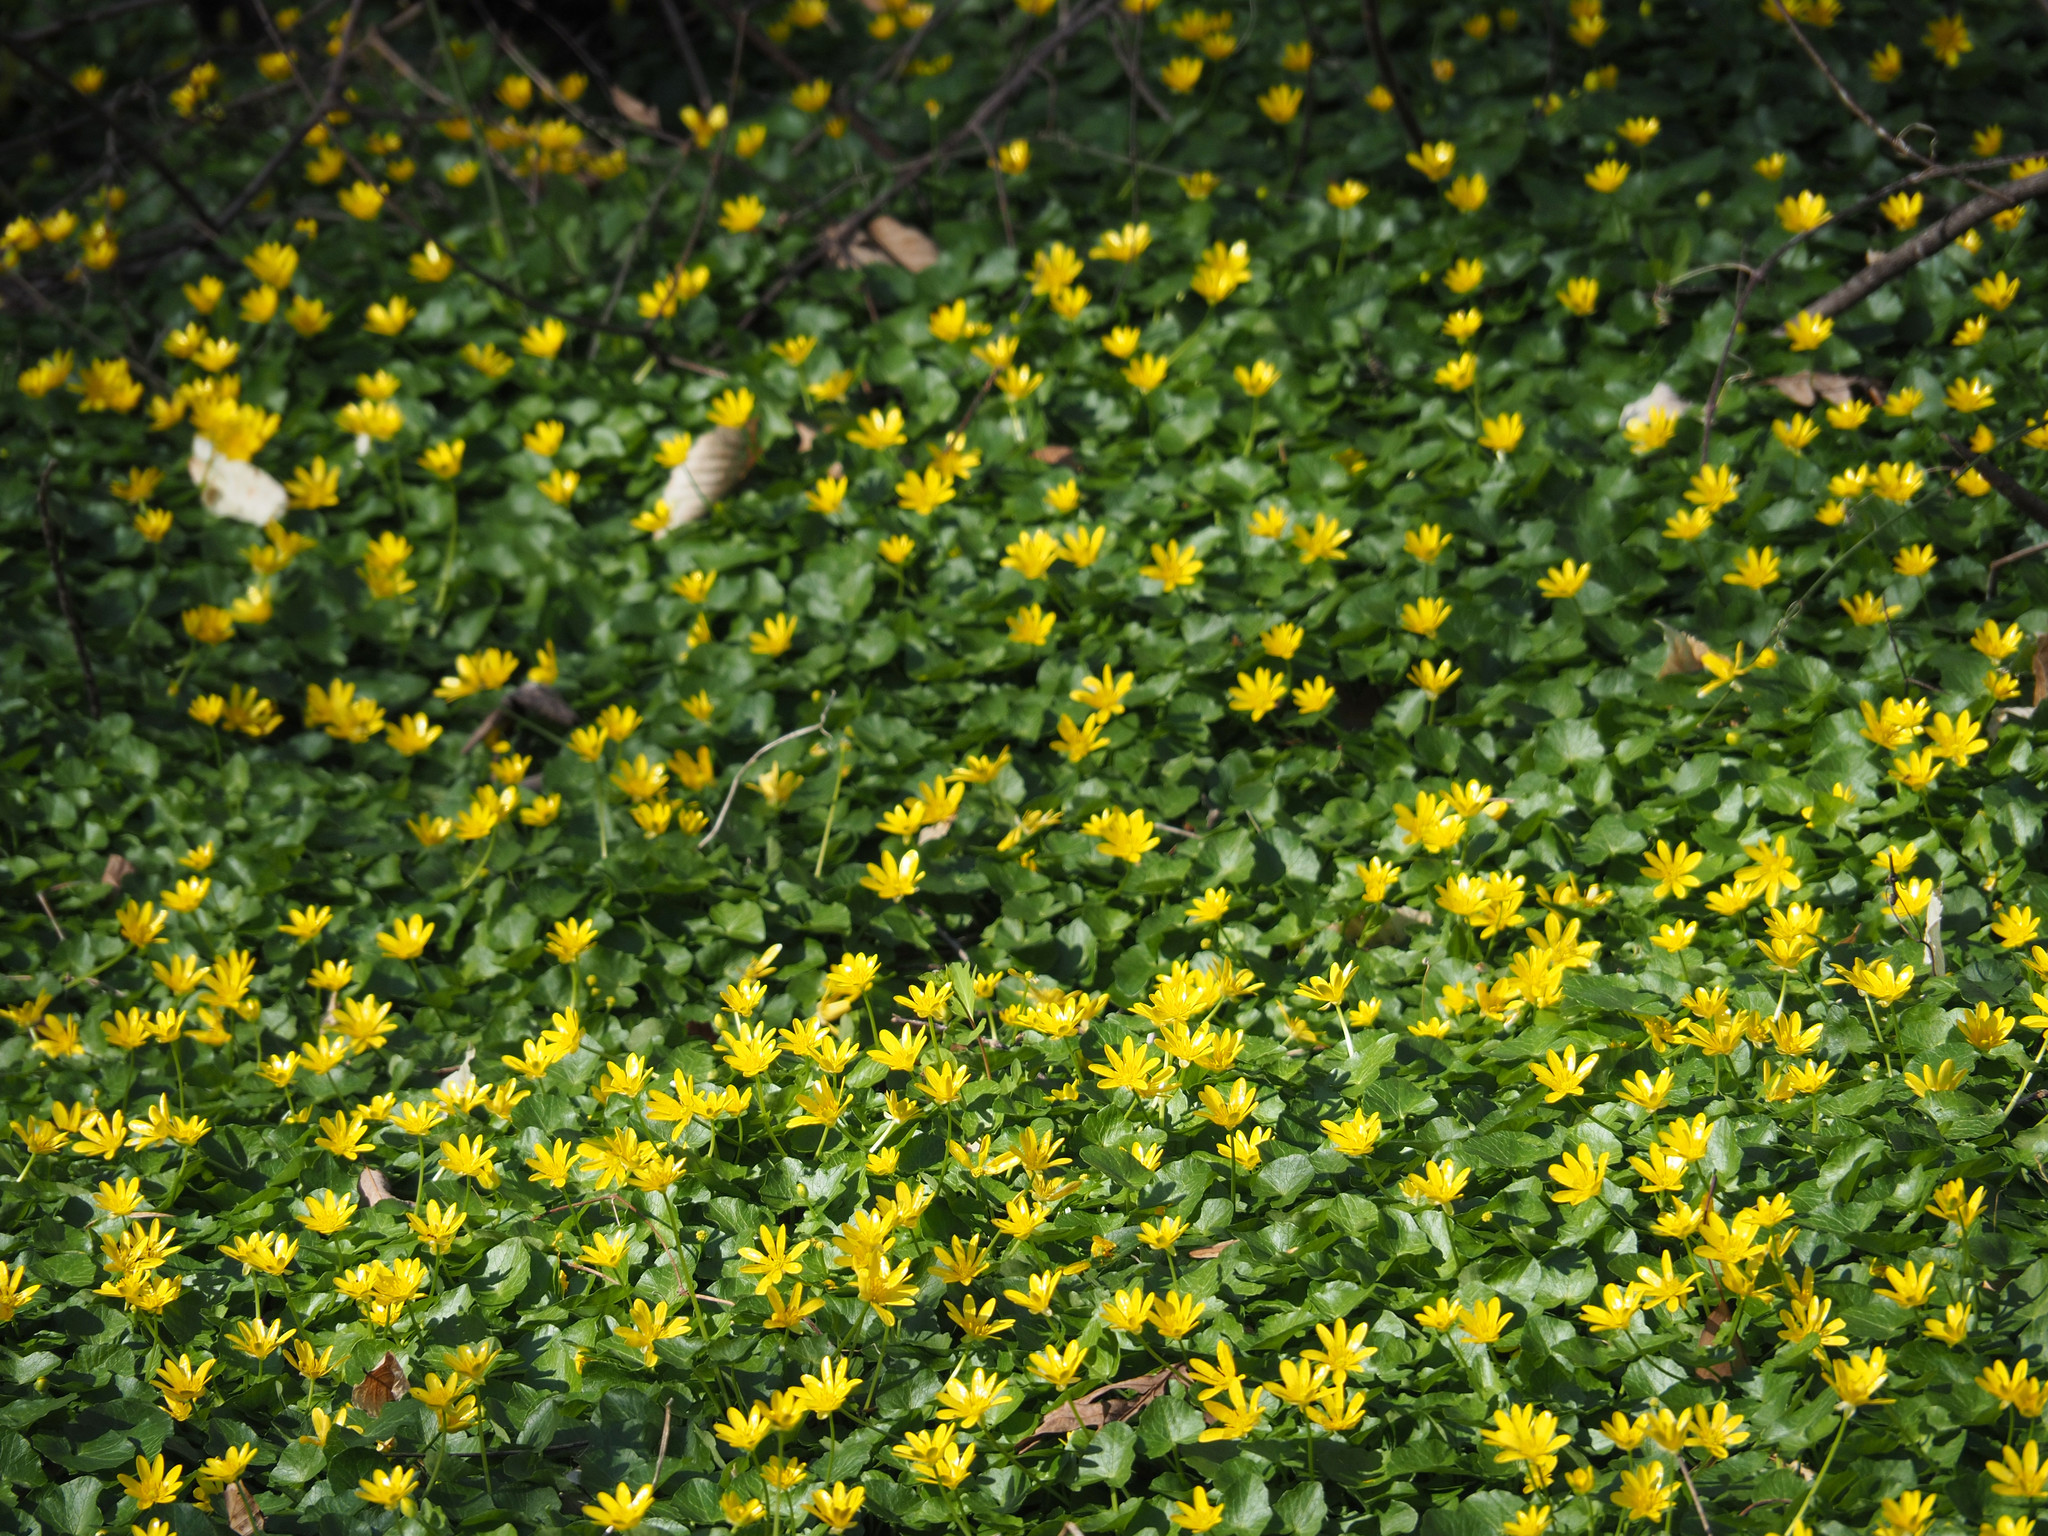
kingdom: Plantae
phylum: Tracheophyta
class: Magnoliopsida
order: Ranunculales
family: Ranunculaceae
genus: Ficaria
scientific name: Ficaria verna
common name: Lesser celandine
